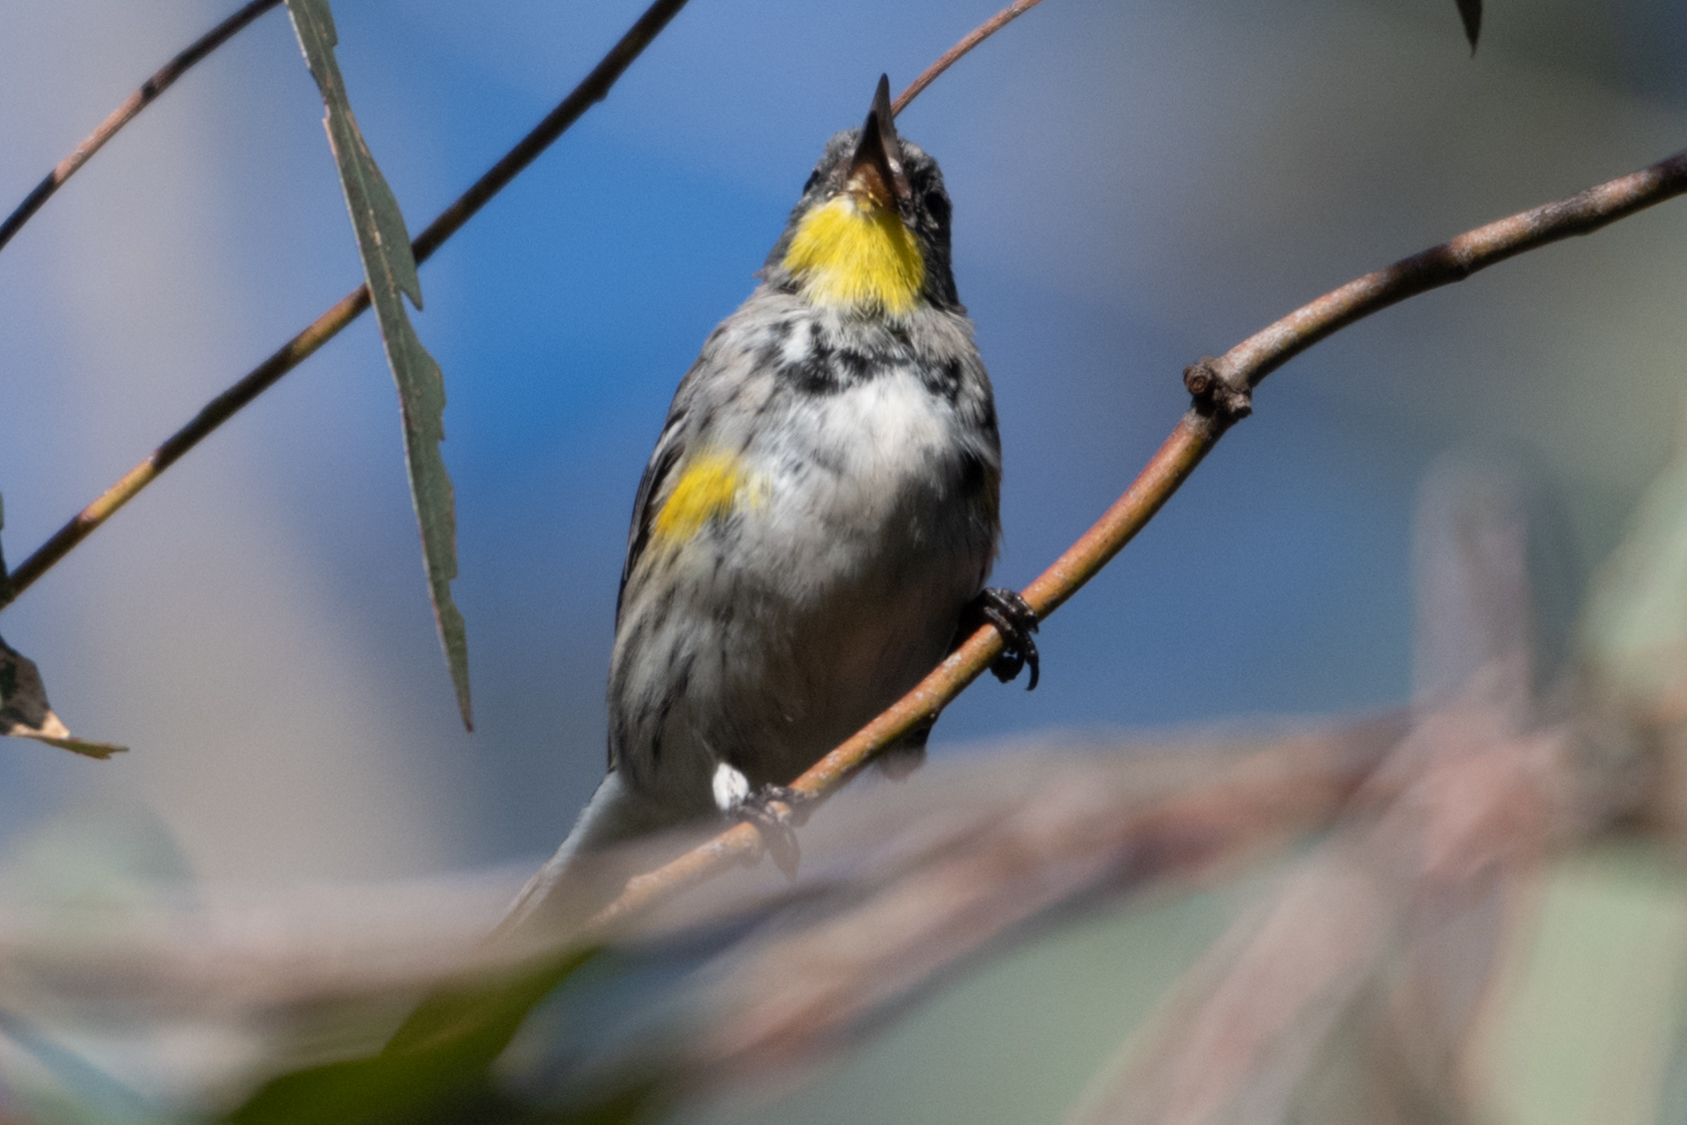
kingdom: Animalia
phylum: Chordata
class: Aves
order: Passeriformes
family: Parulidae
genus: Setophaga
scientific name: Setophaga coronata
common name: Myrtle warbler
